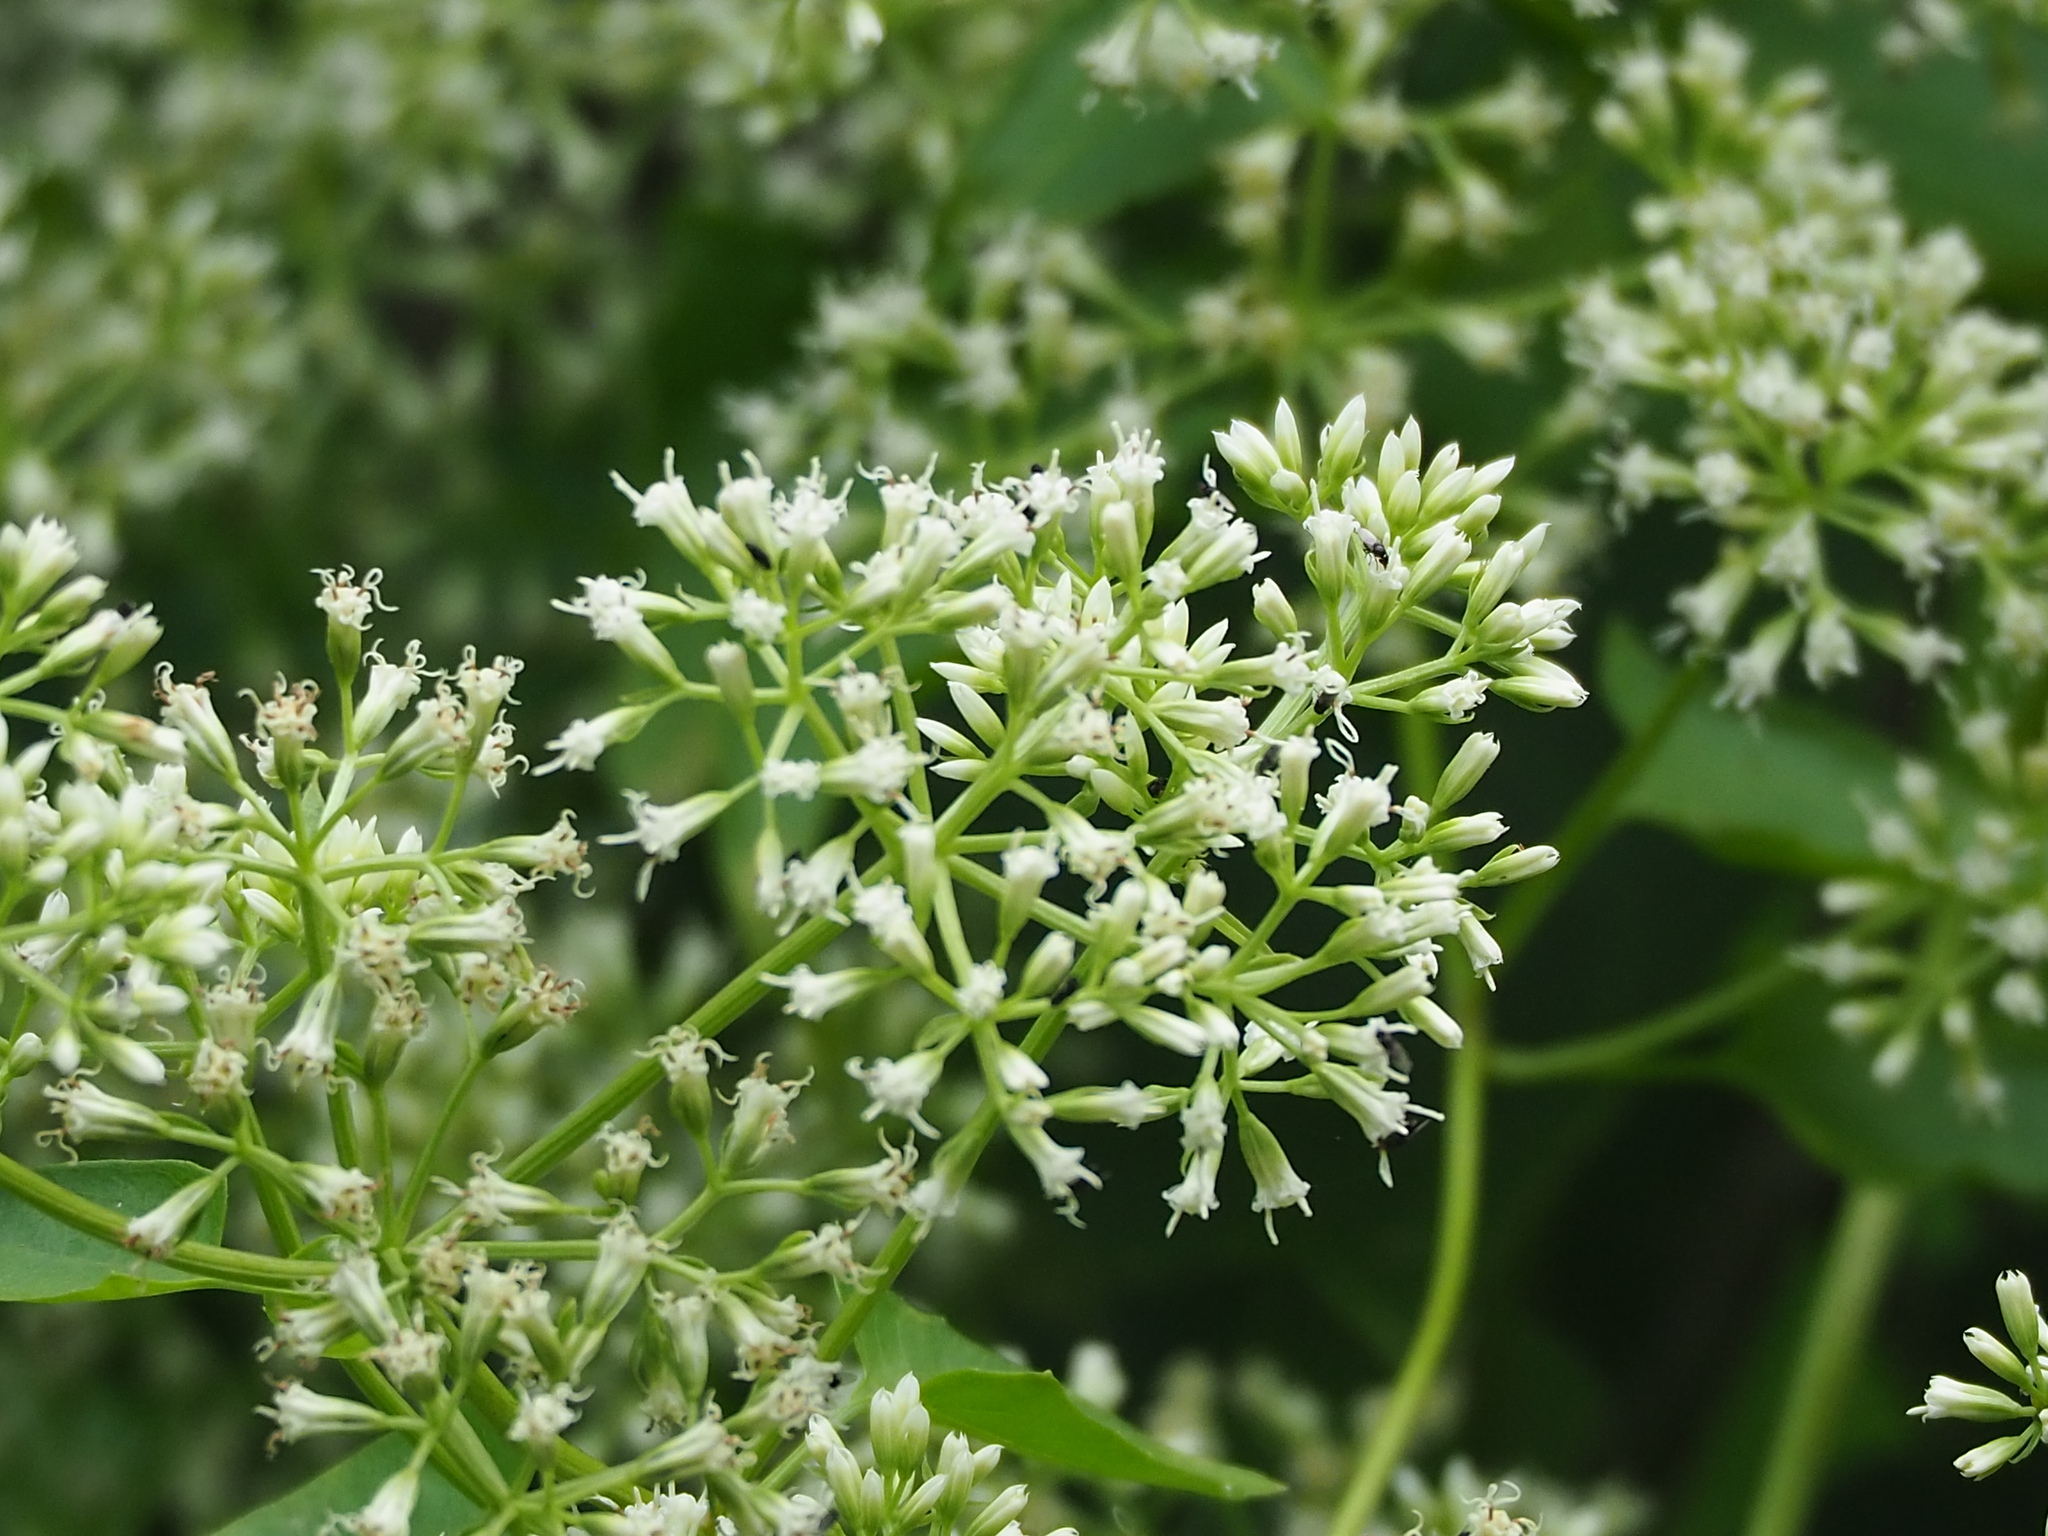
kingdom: Plantae
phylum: Tracheophyta
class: Magnoliopsida
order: Asterales
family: Asteraceae
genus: Mikania
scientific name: Mikania micrantha
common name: Mile-a-minute
